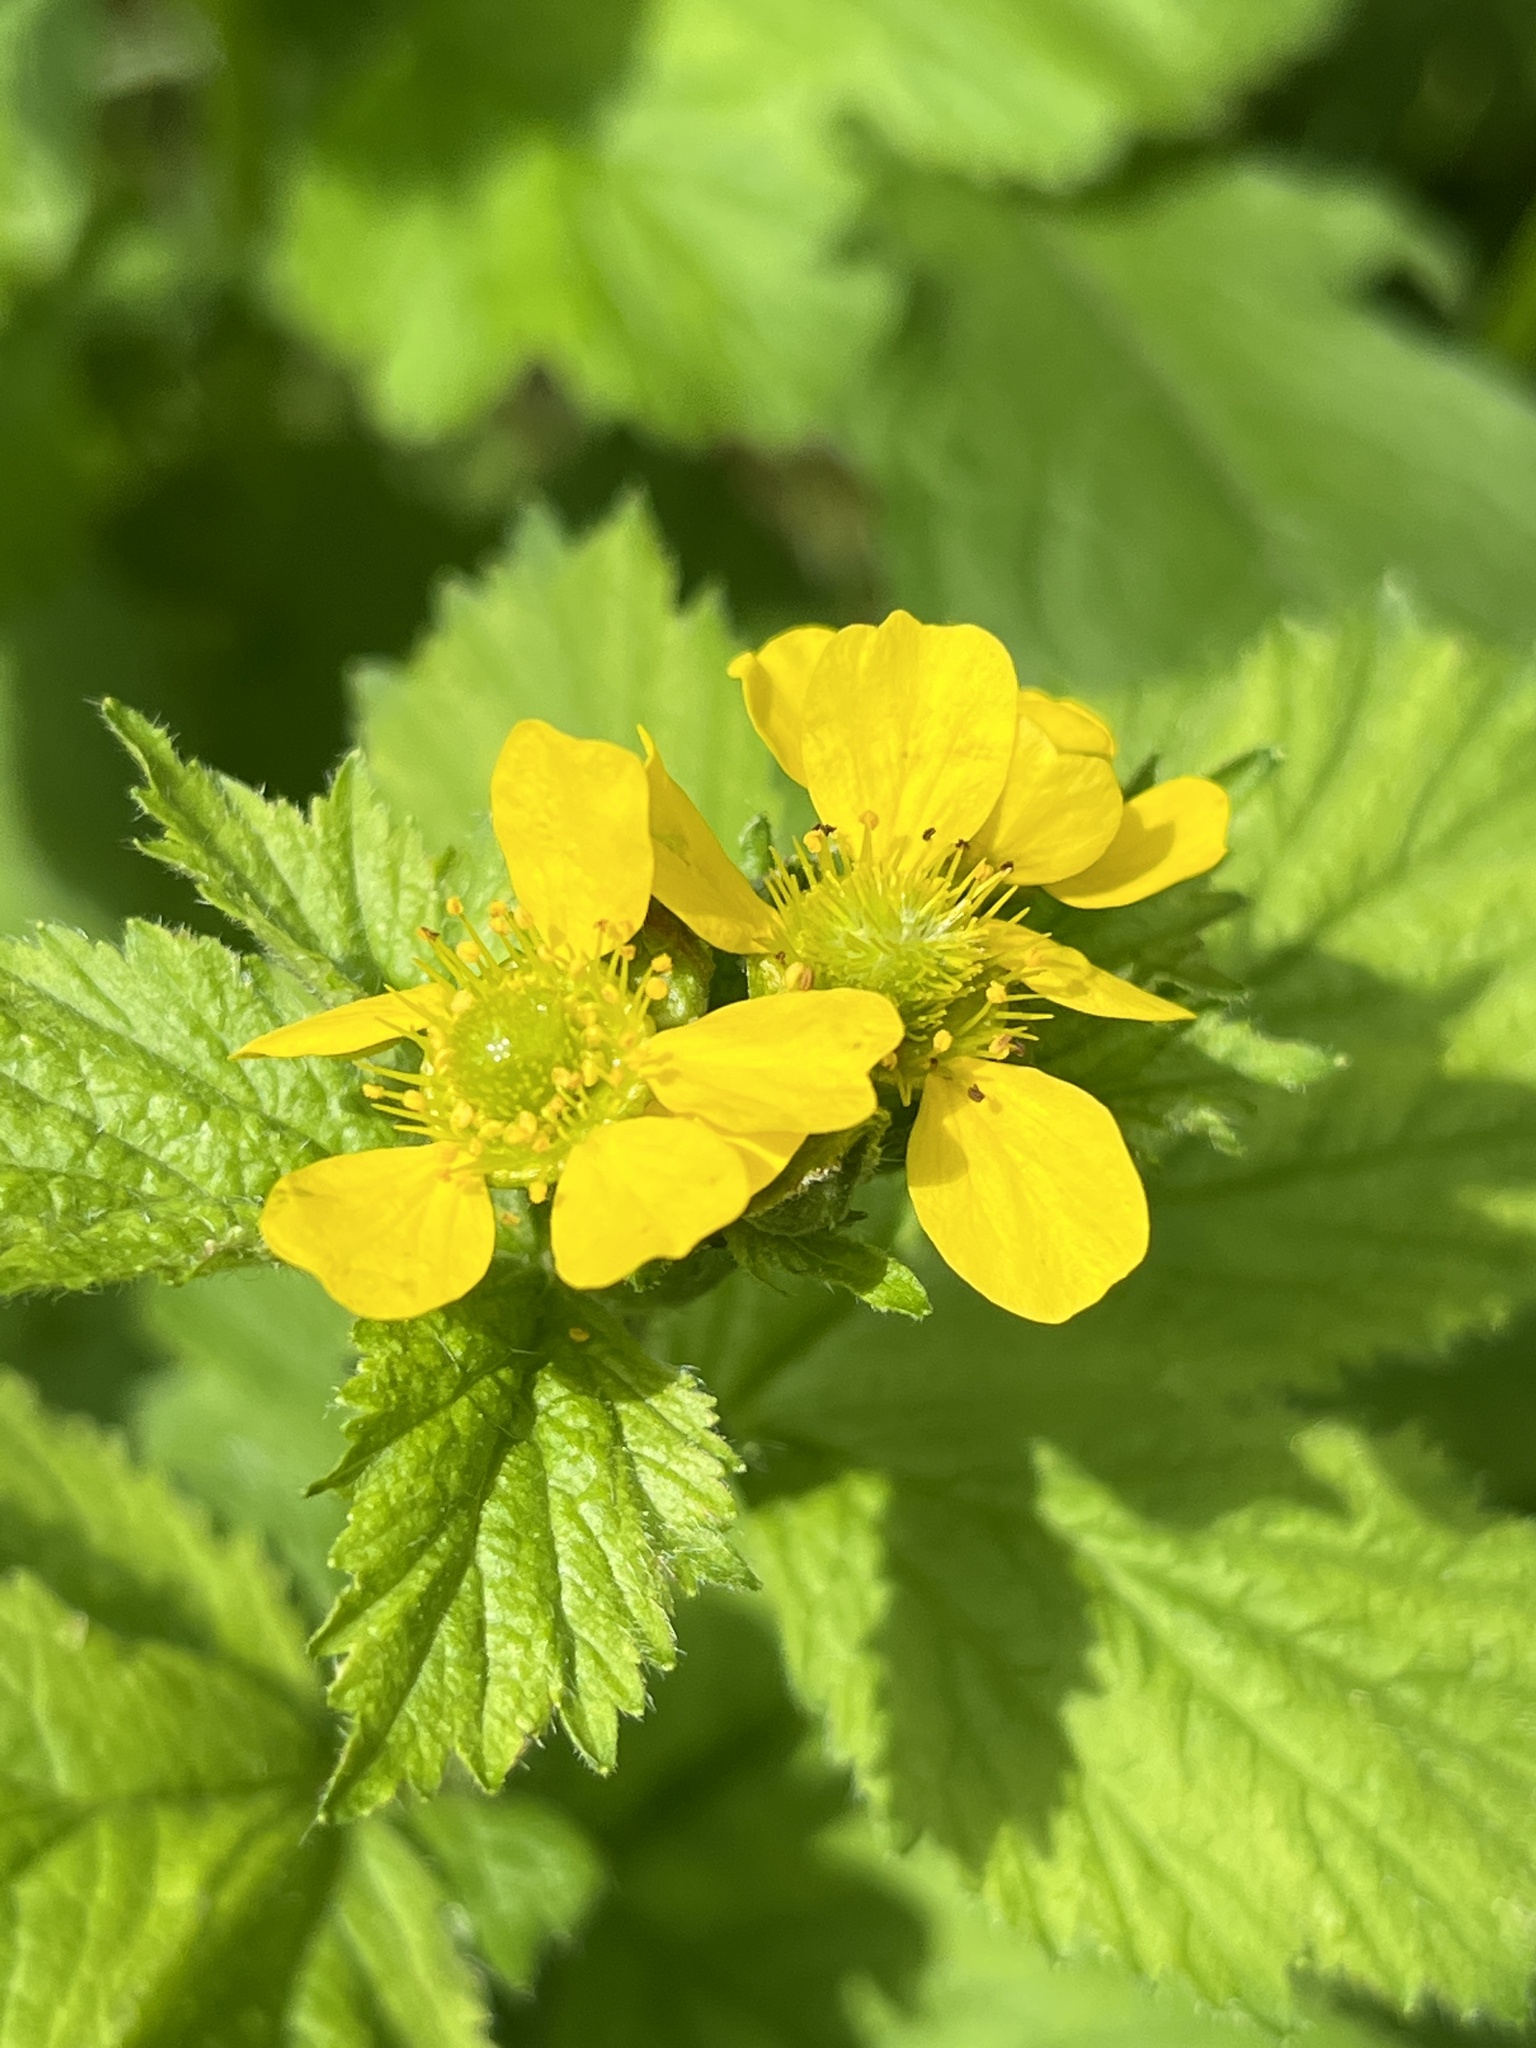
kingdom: Plantae
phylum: Tracheophyta
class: Magnoliopsida
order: Rosales
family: Rosaceae
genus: Geum
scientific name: Geum macrophyllum
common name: Large-leaved avens
